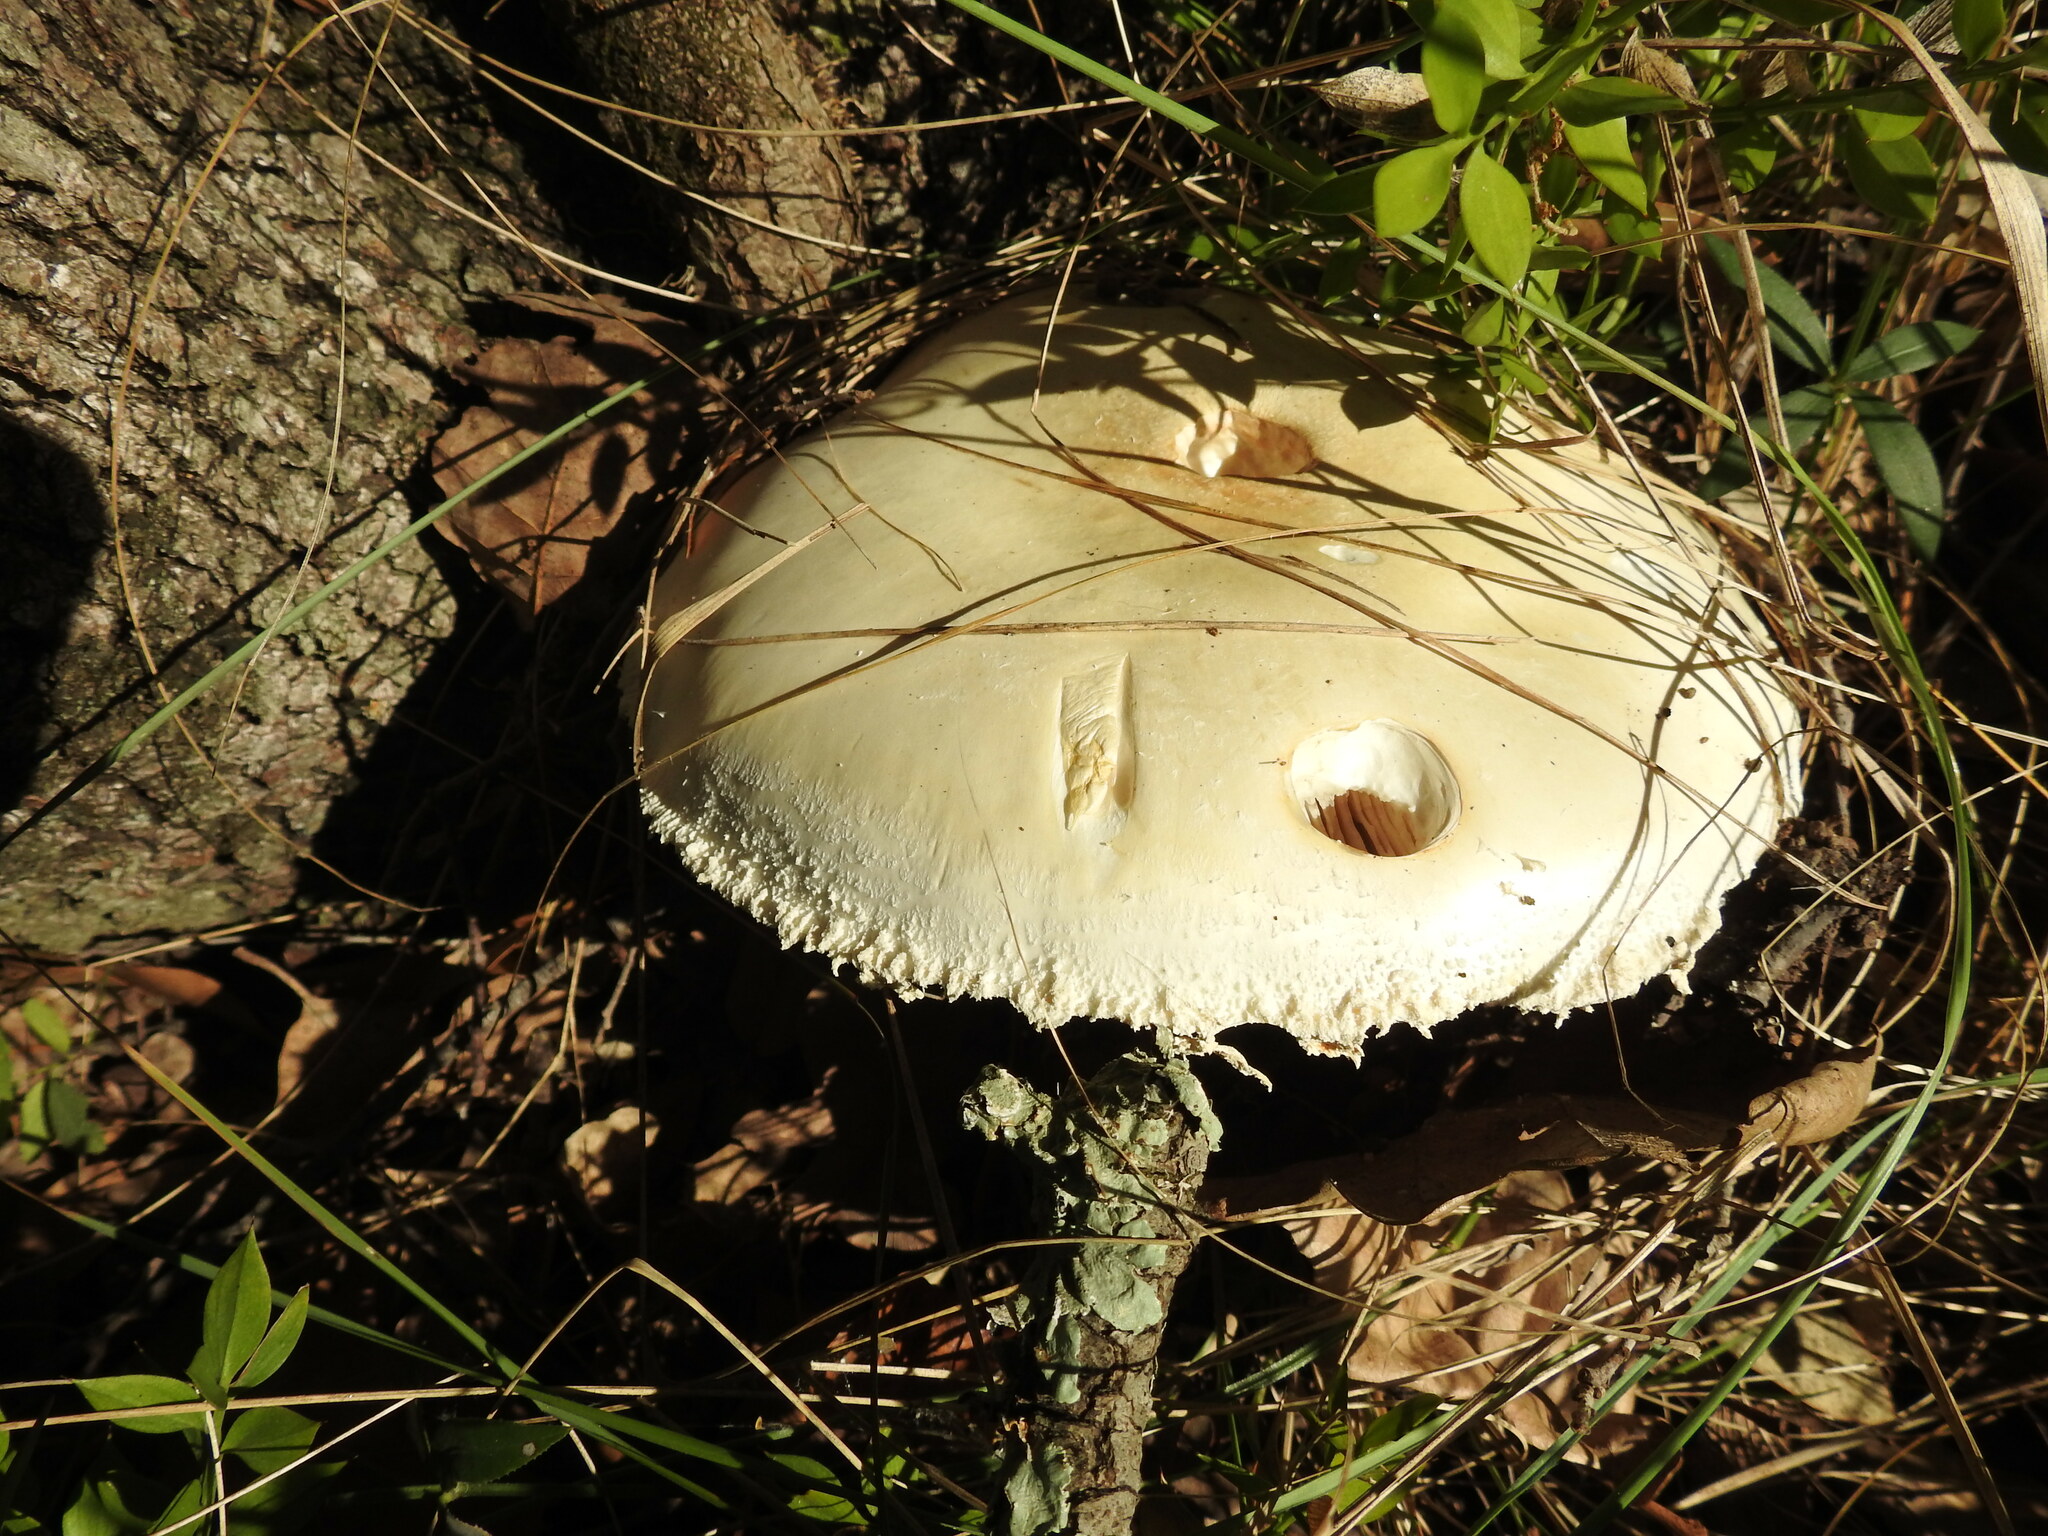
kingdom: Fungi
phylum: Basidiomycota
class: Agaricomycetes
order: Agaricales
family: Amanitaceae
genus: Amanita
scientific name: Amanita ovoidea
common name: Bearded amanita
